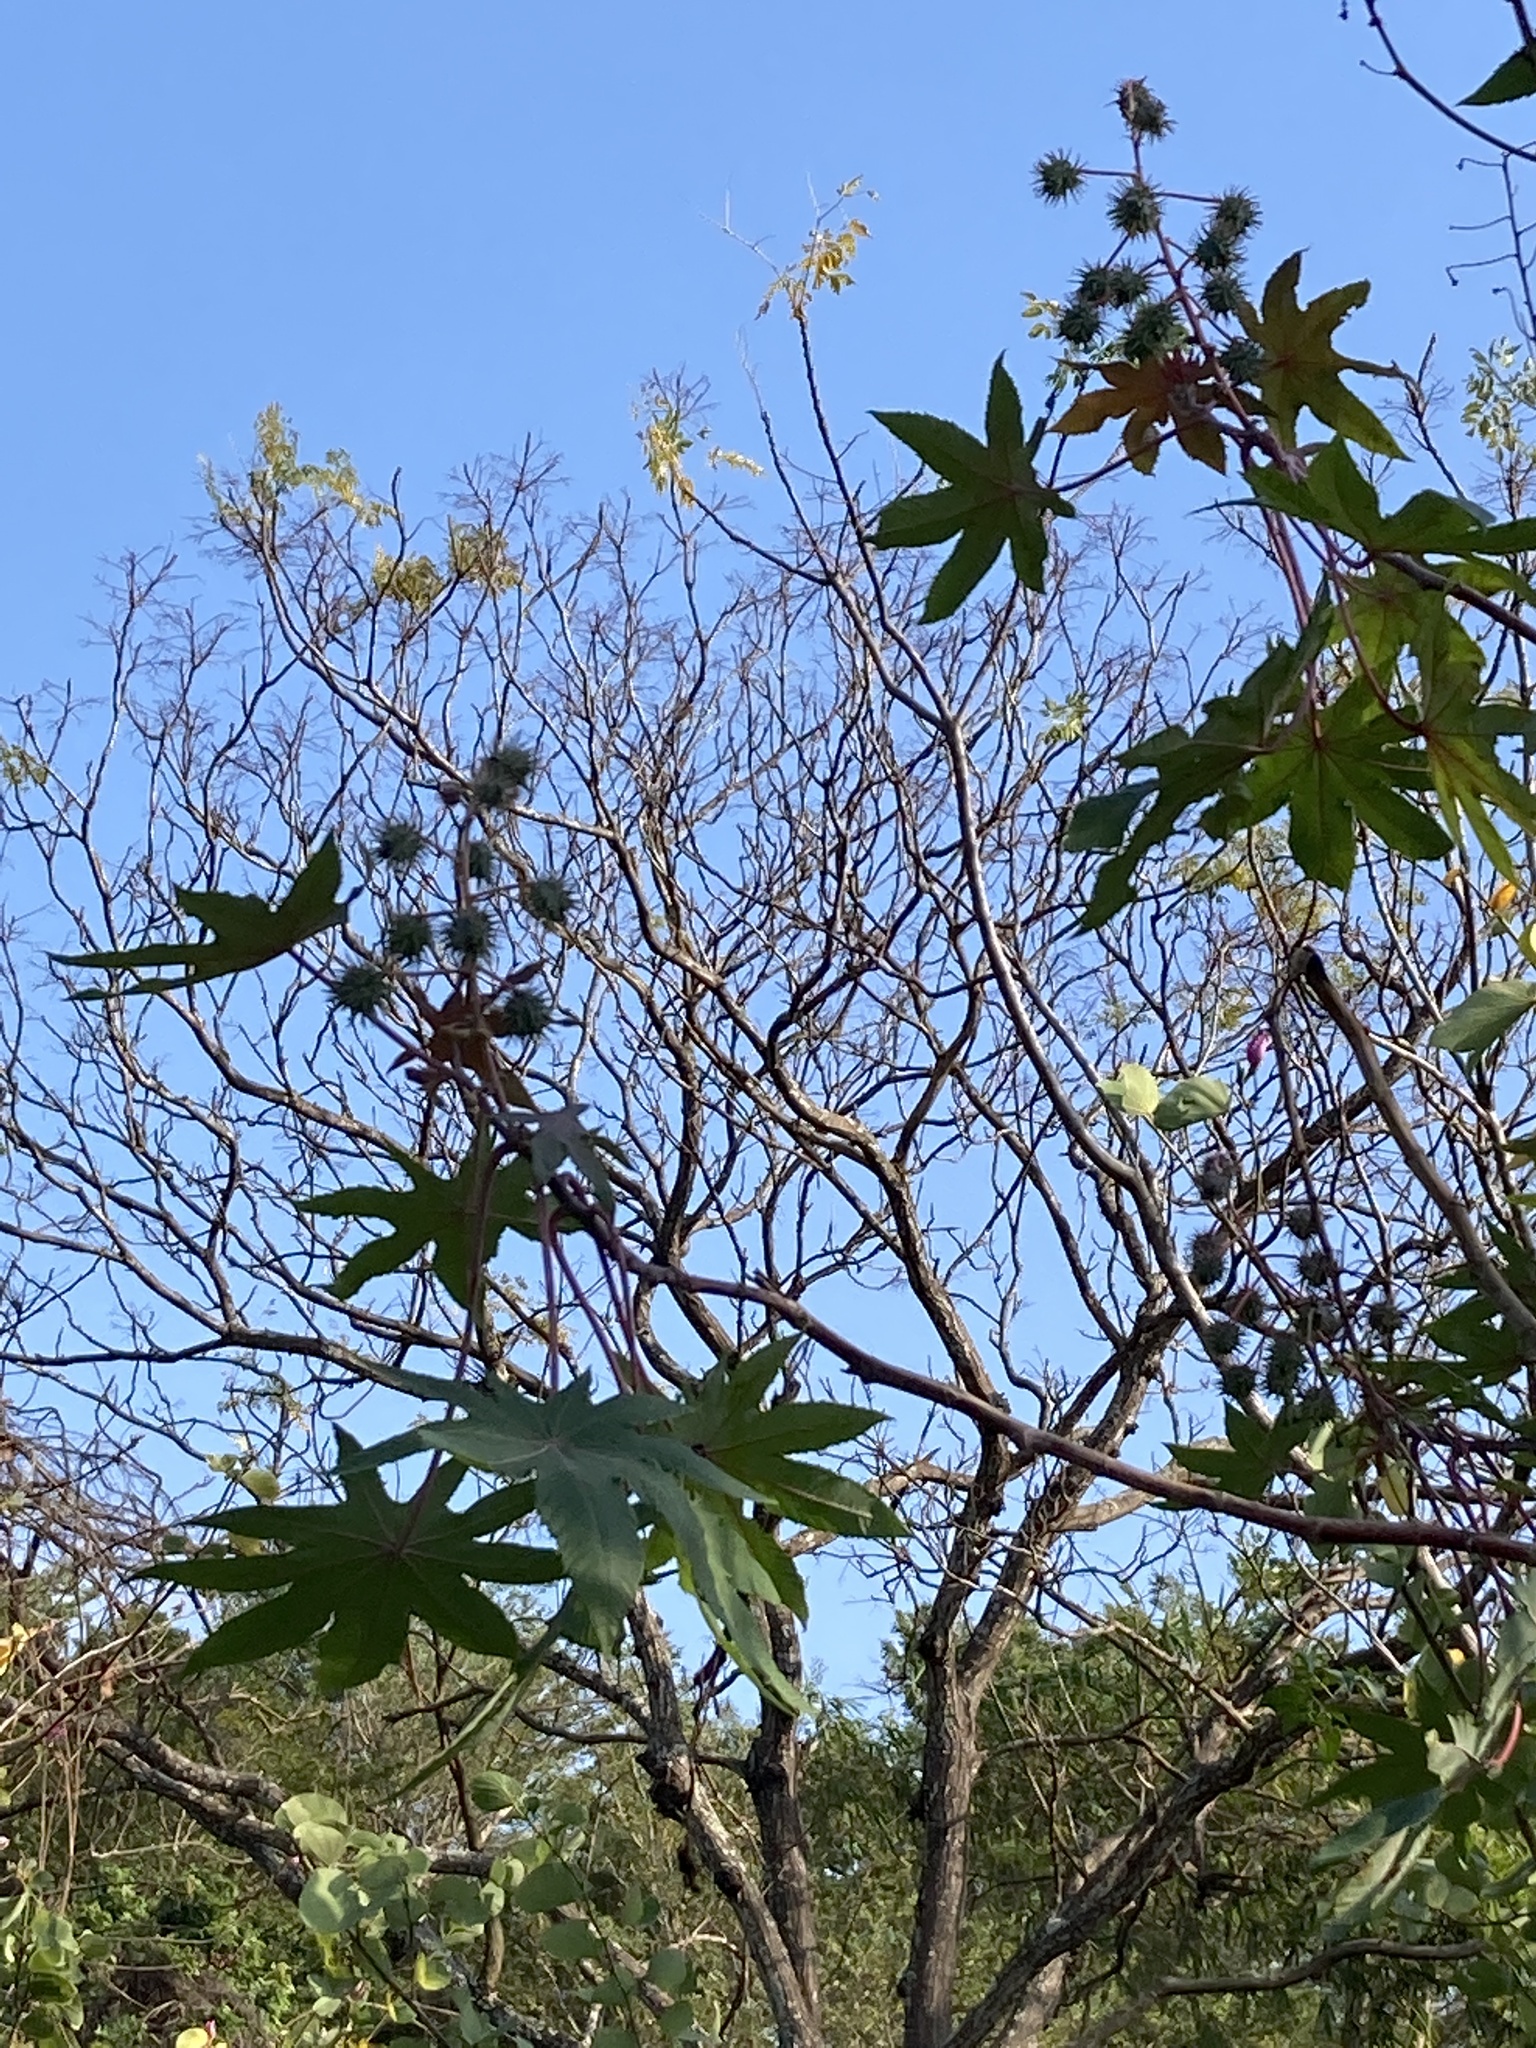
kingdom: Plantae
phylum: Tracheophyta
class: Magnoliopsida
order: Malpighiales
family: Euphorbiaceae
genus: Ricinus
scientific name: Ricinus communis
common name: Castor-oil-plant
